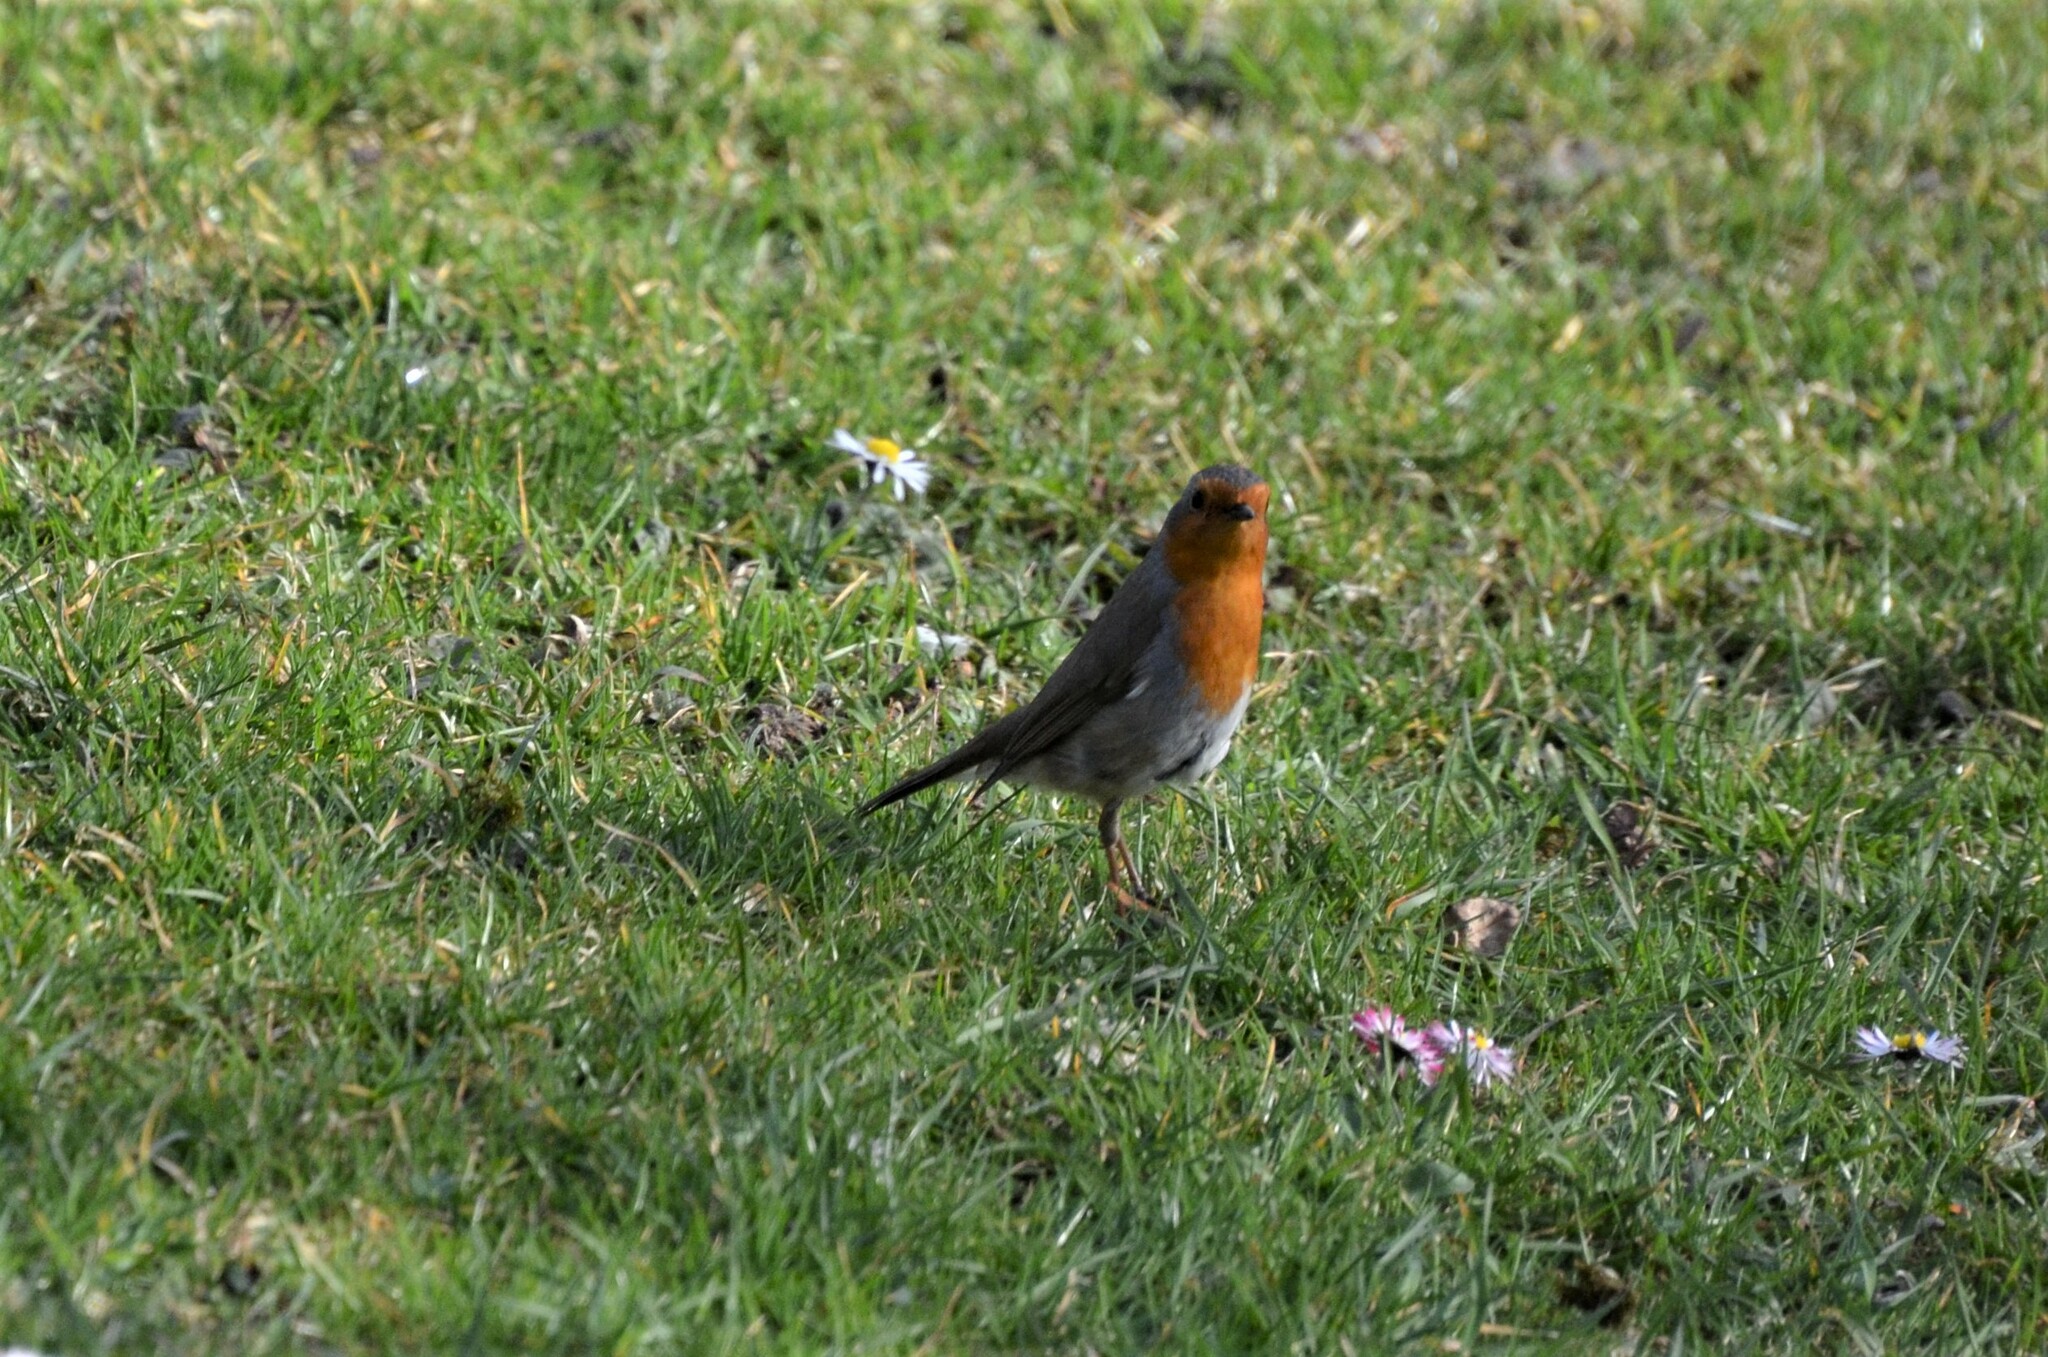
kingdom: Animalia
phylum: Chordata
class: Aves
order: Passeriformes
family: Muscicapidae
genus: Erithacus
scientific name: Erithacus rubecula
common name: European robin
